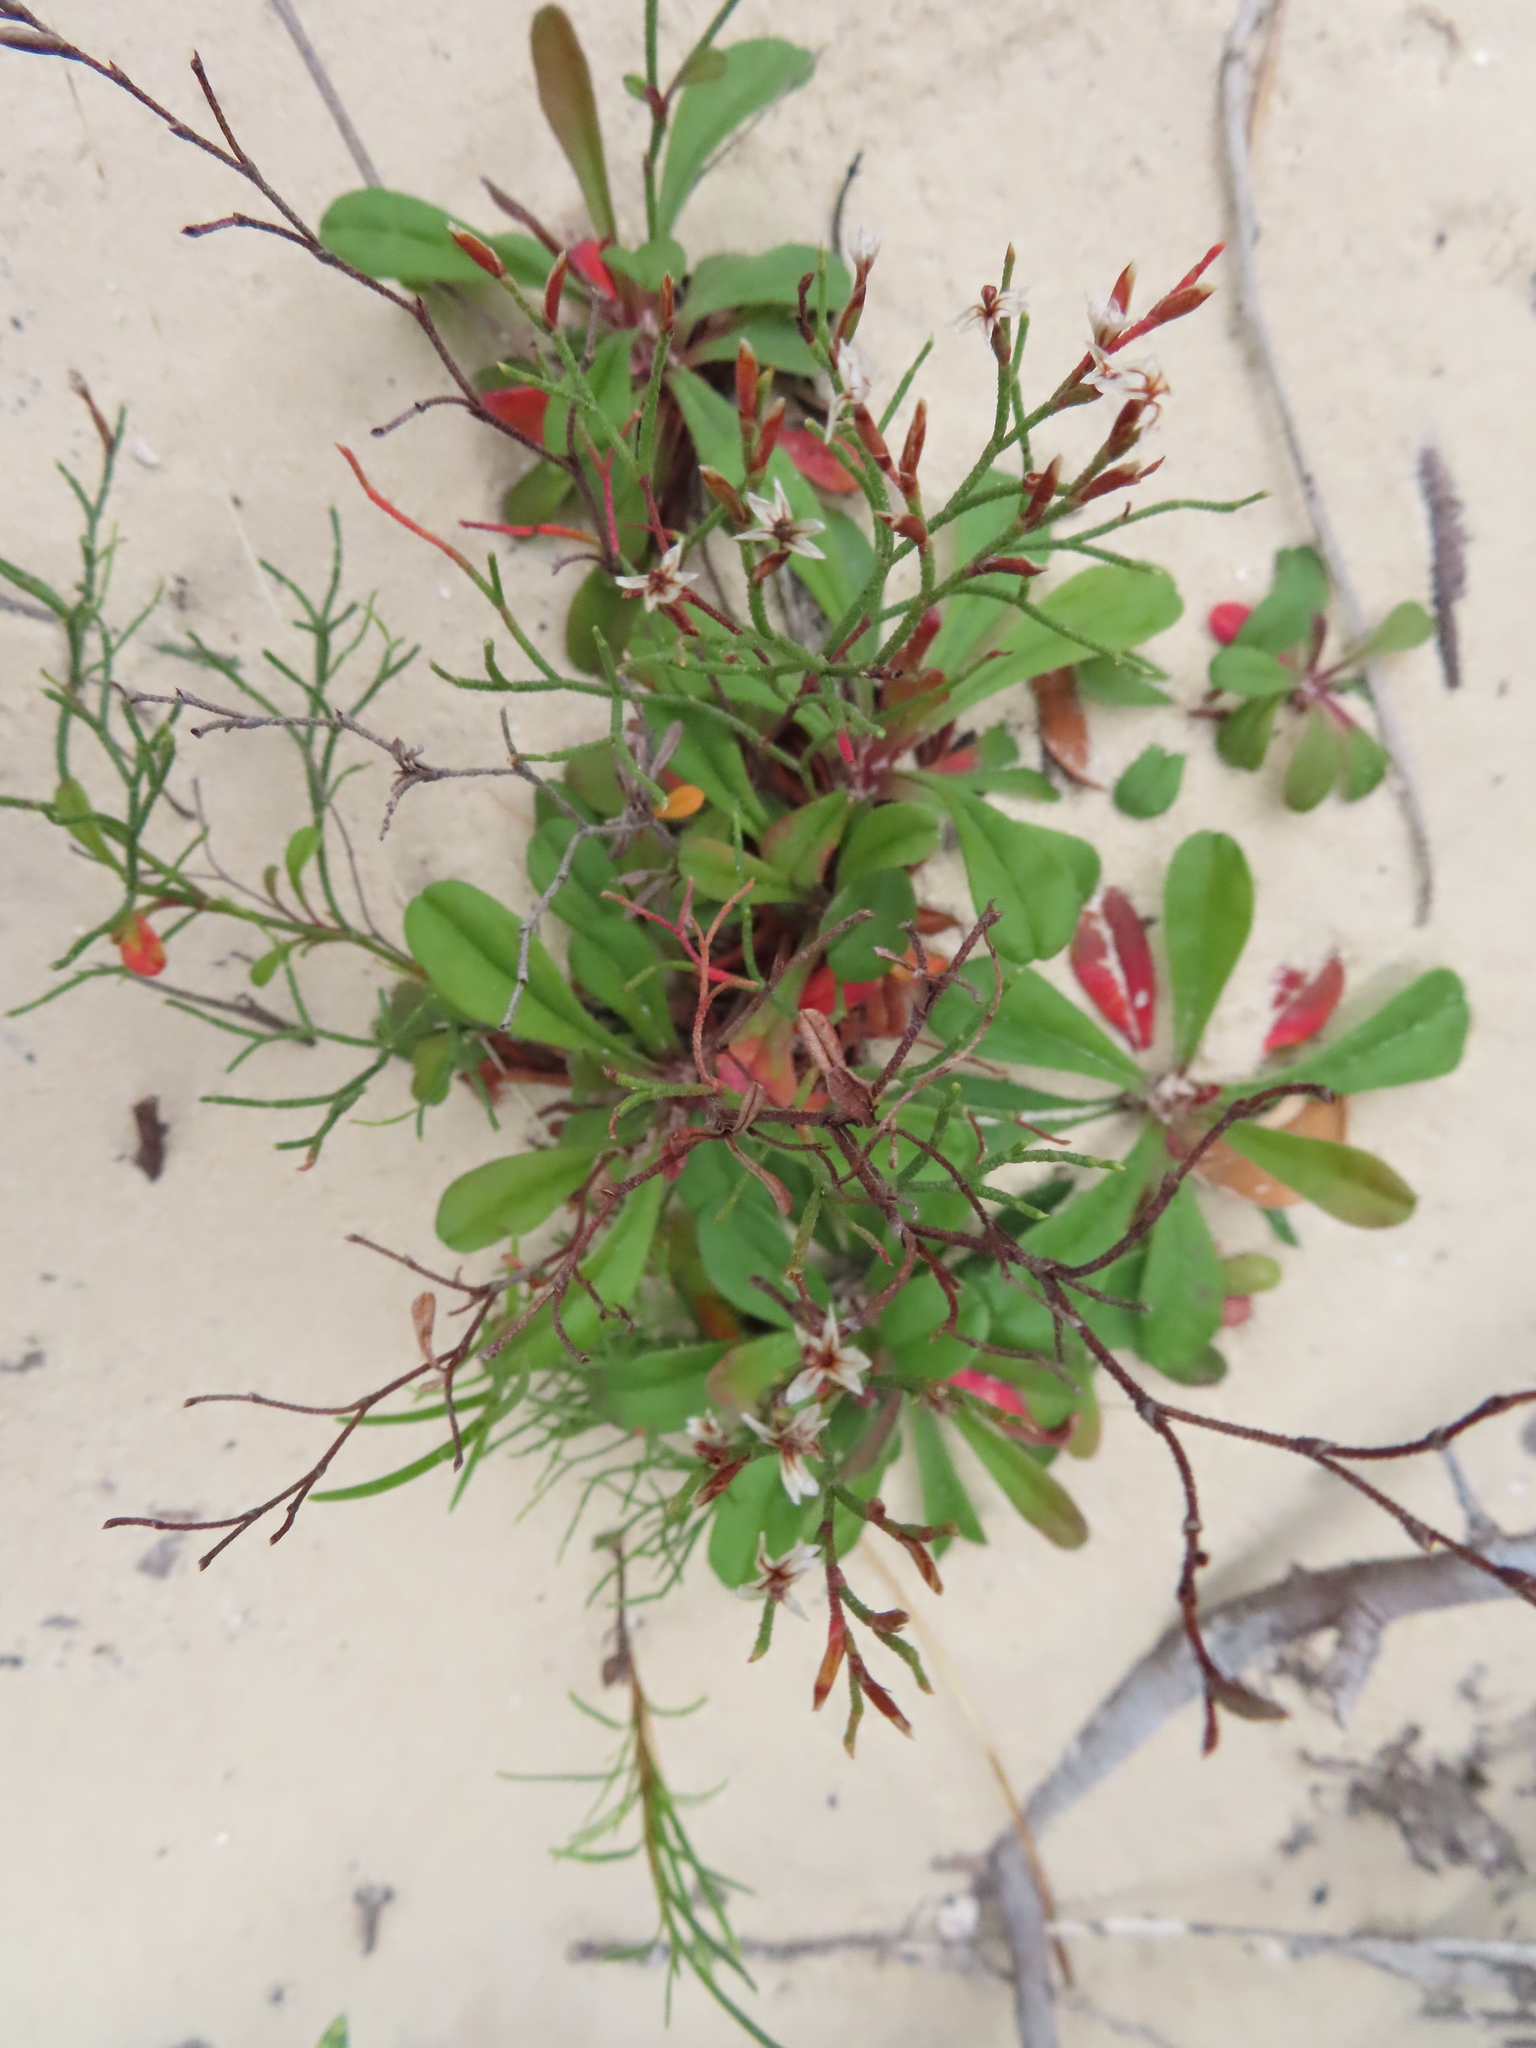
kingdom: Plantae
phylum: Tracheophyta
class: Magnoliopsida
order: Caryophyllales
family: Plumbaginaceae
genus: Limonium
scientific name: Limonium scabrum
